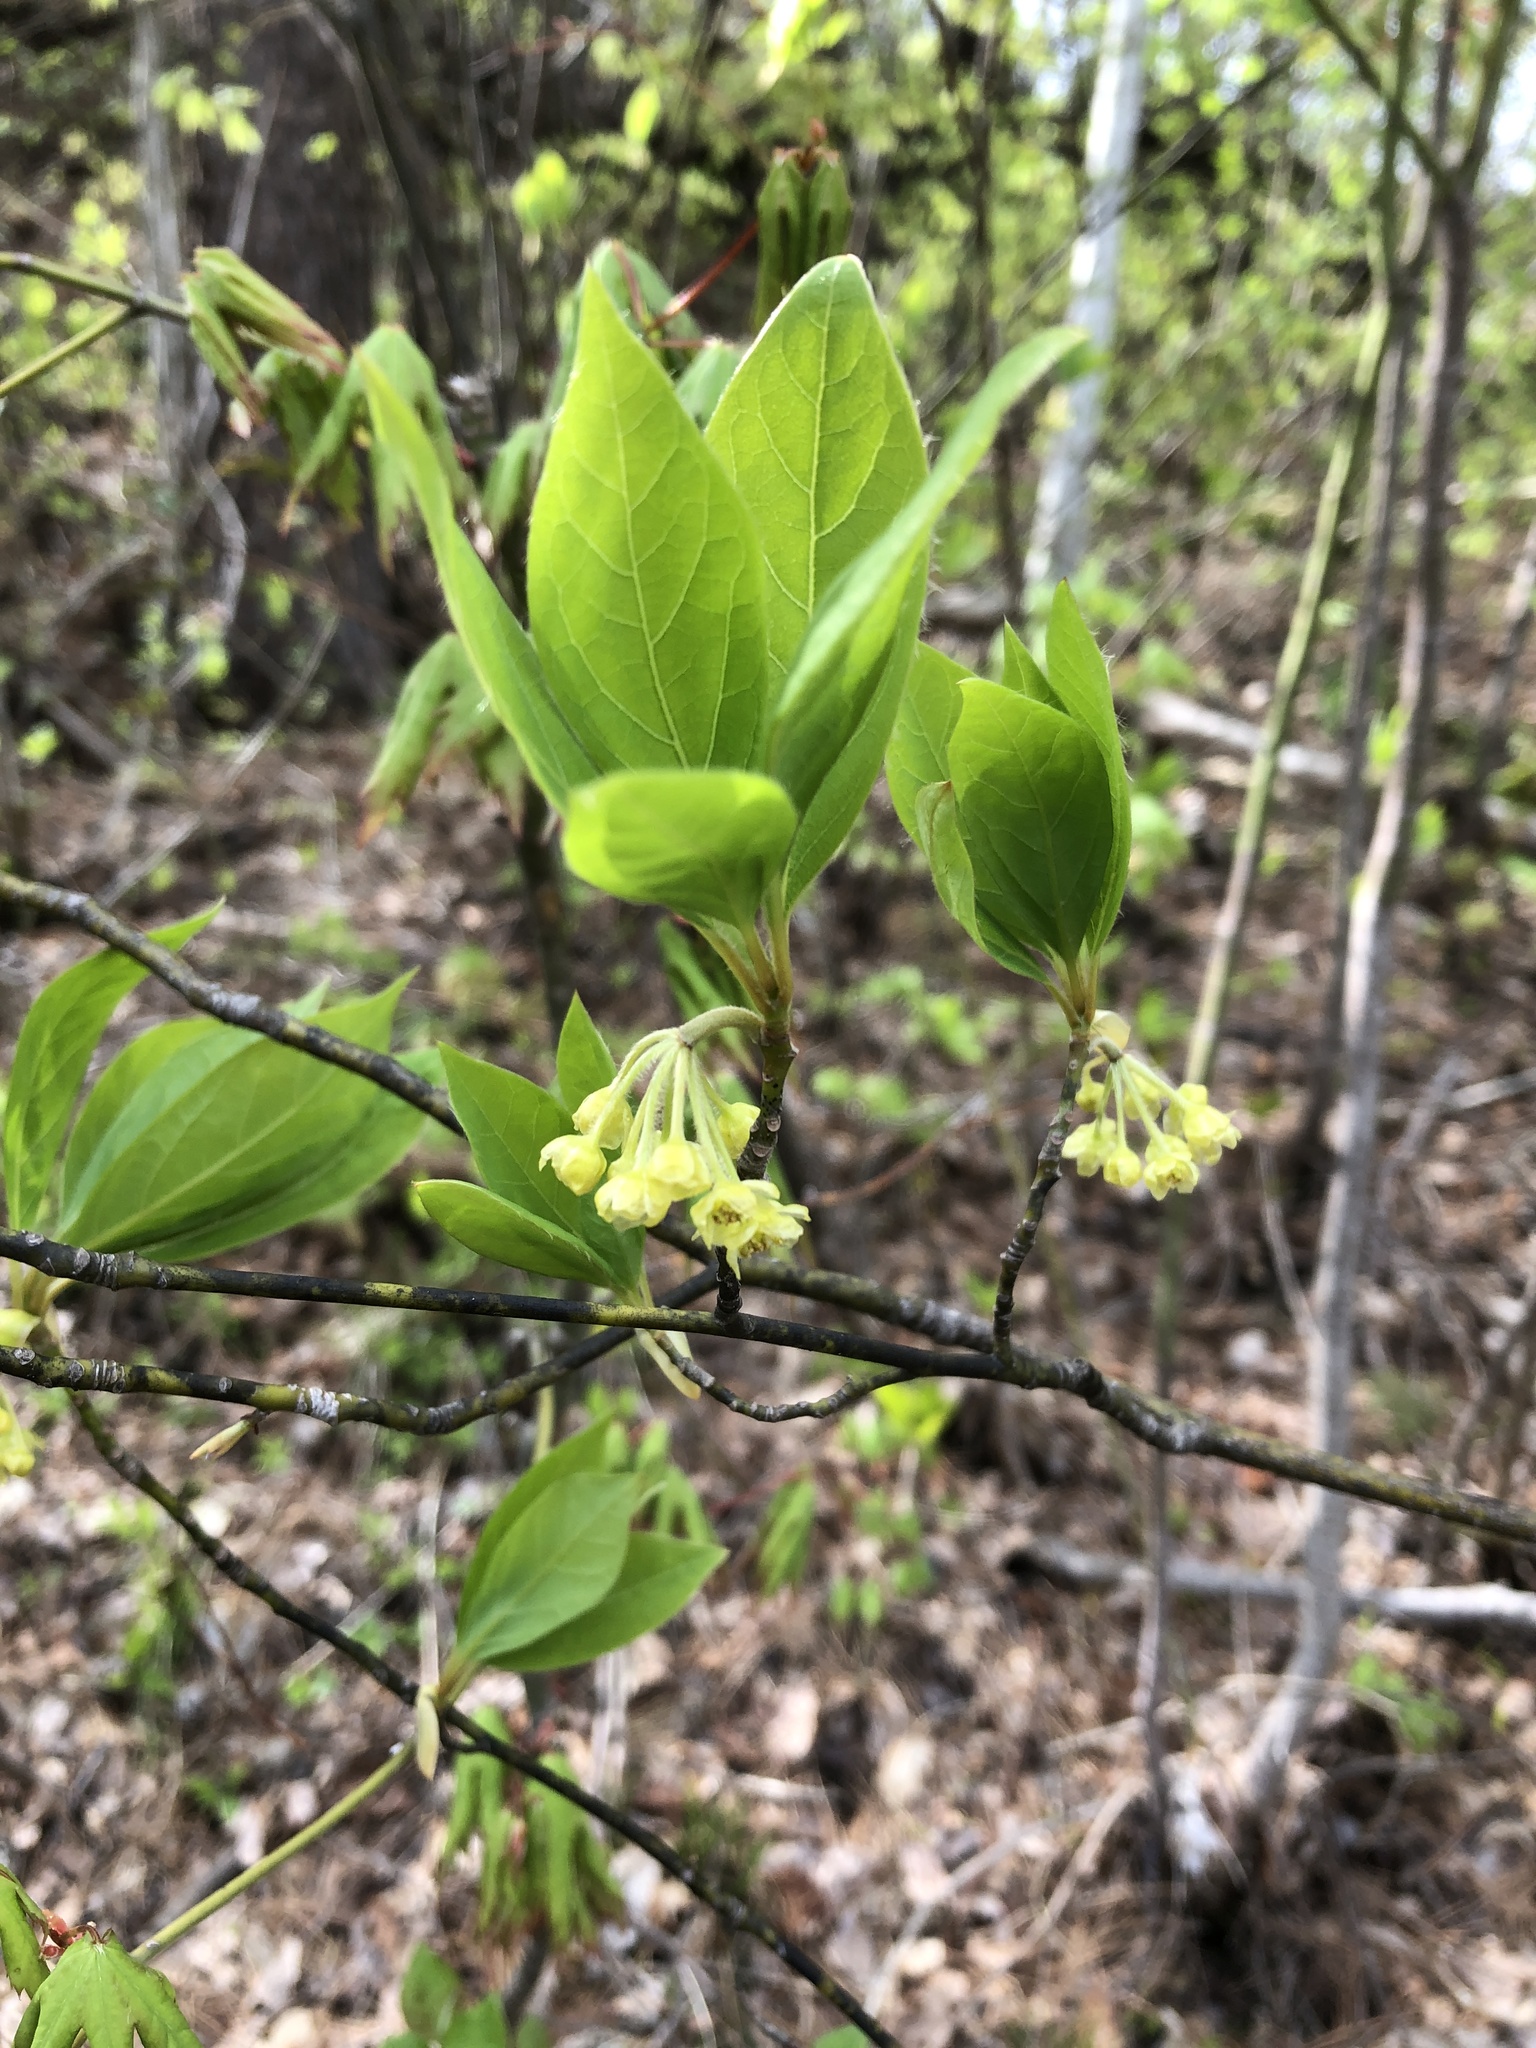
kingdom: Plantae
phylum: Tracheophyta
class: Magnoliopsida
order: Laurales
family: Lauraceae
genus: Lindera
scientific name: Lindera umbellata
